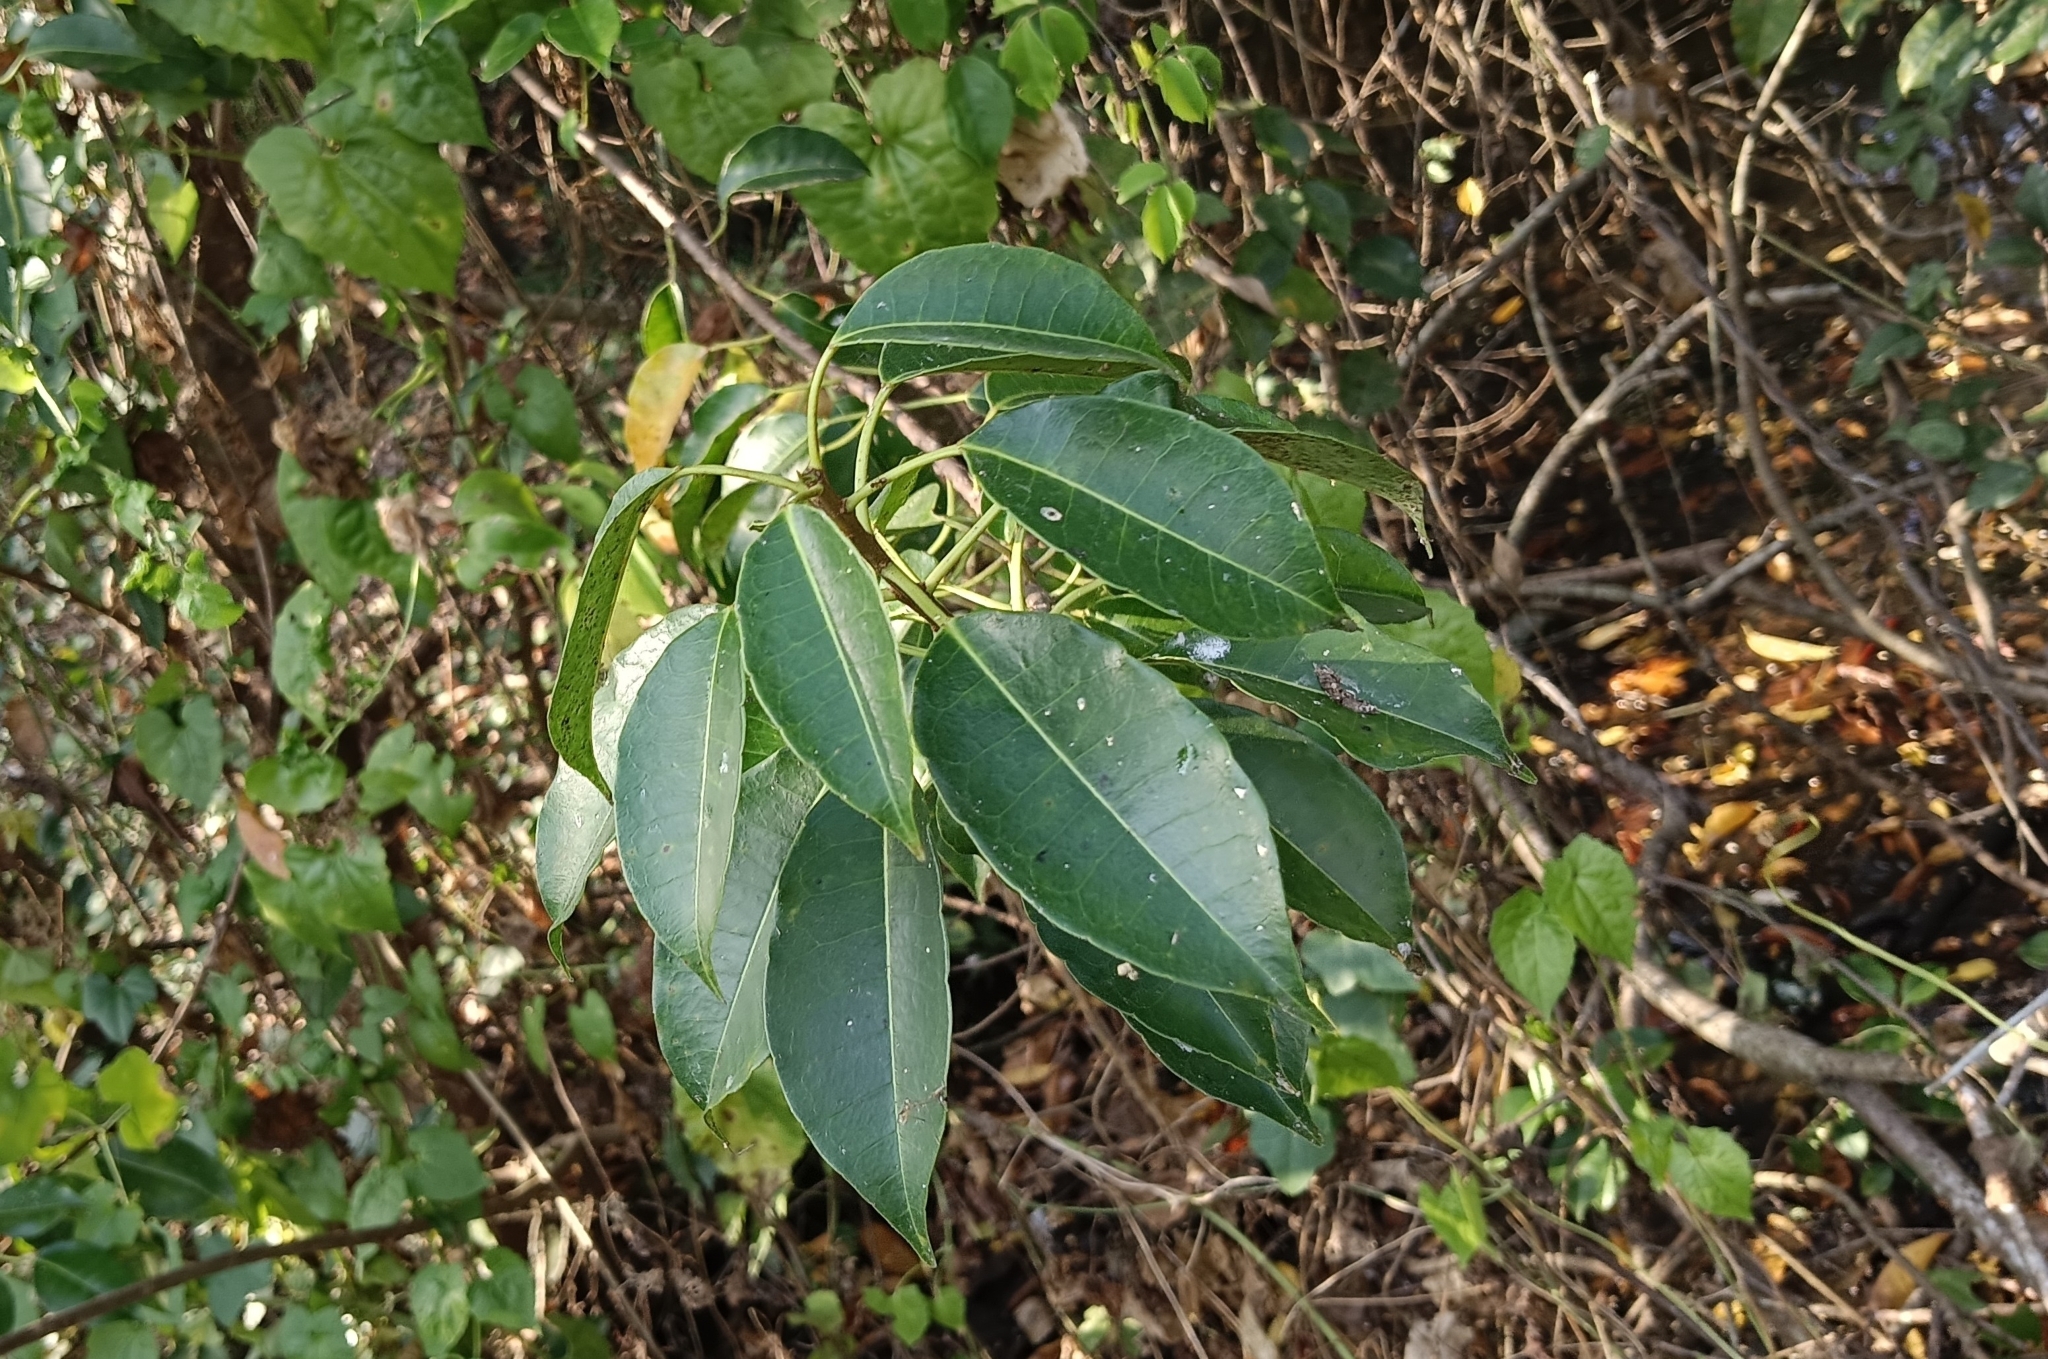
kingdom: Plantae
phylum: Tracheophyta
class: Magnoliopsida
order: Malpighiales
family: Euphorbiaceae
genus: Excoecaria
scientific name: Excoecaria agallocha
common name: River poisontree
